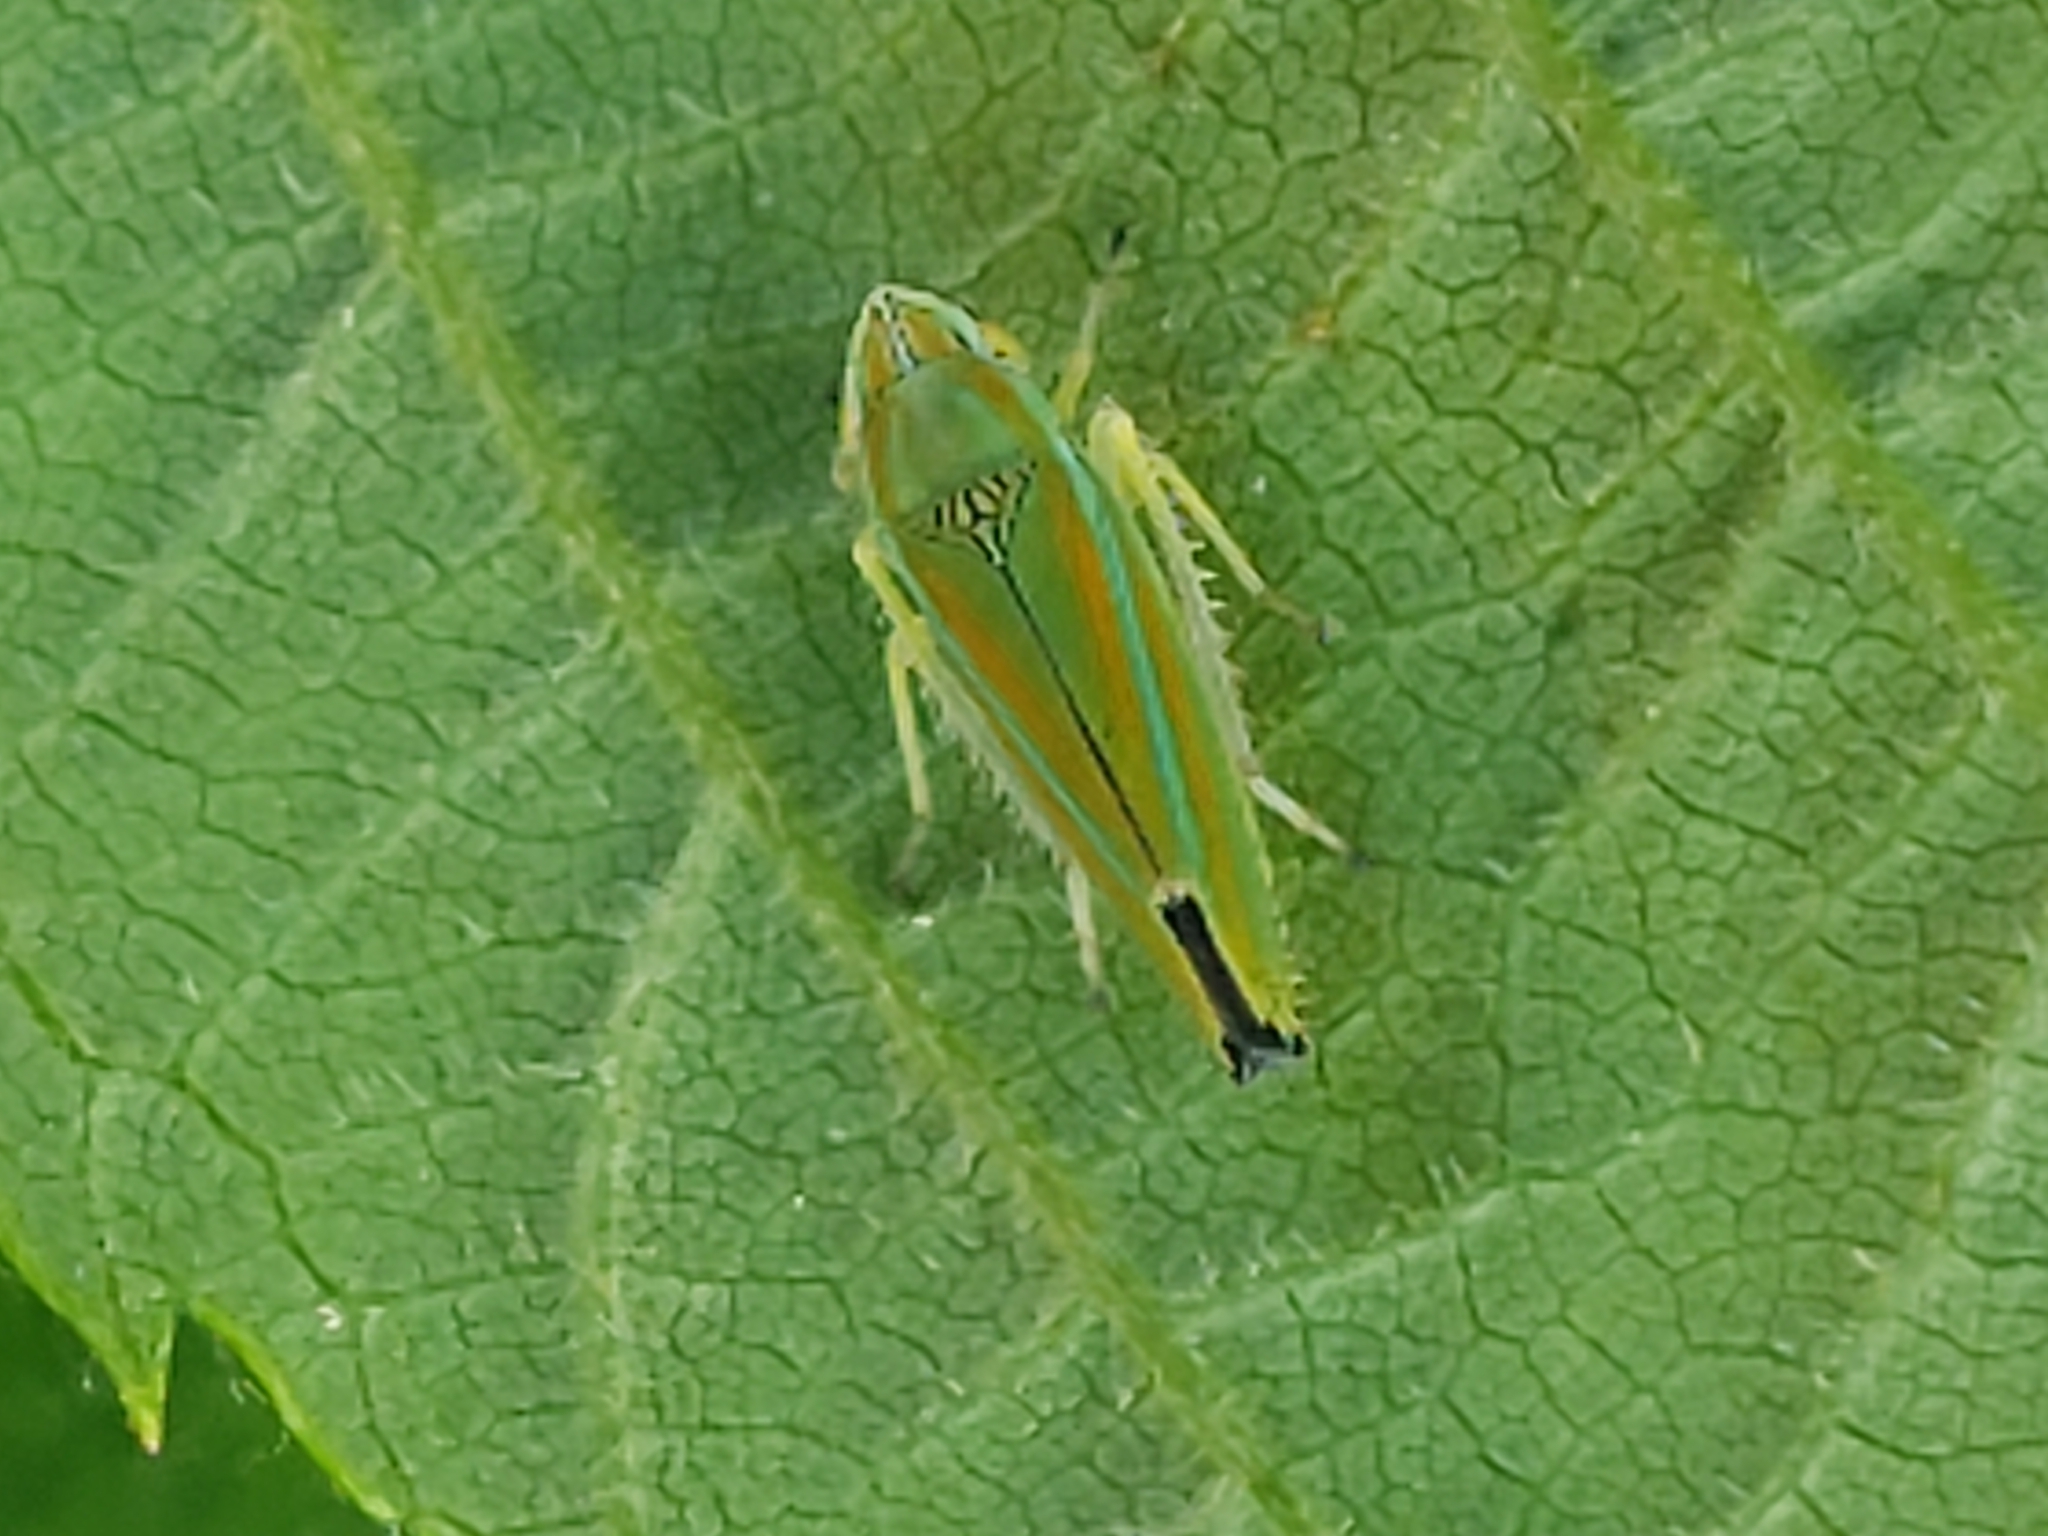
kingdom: Animalia
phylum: Arthropoda
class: Insecta
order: Hemiptera
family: Cicadellidae
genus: Graphocephala
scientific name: Graphocephala versuta
